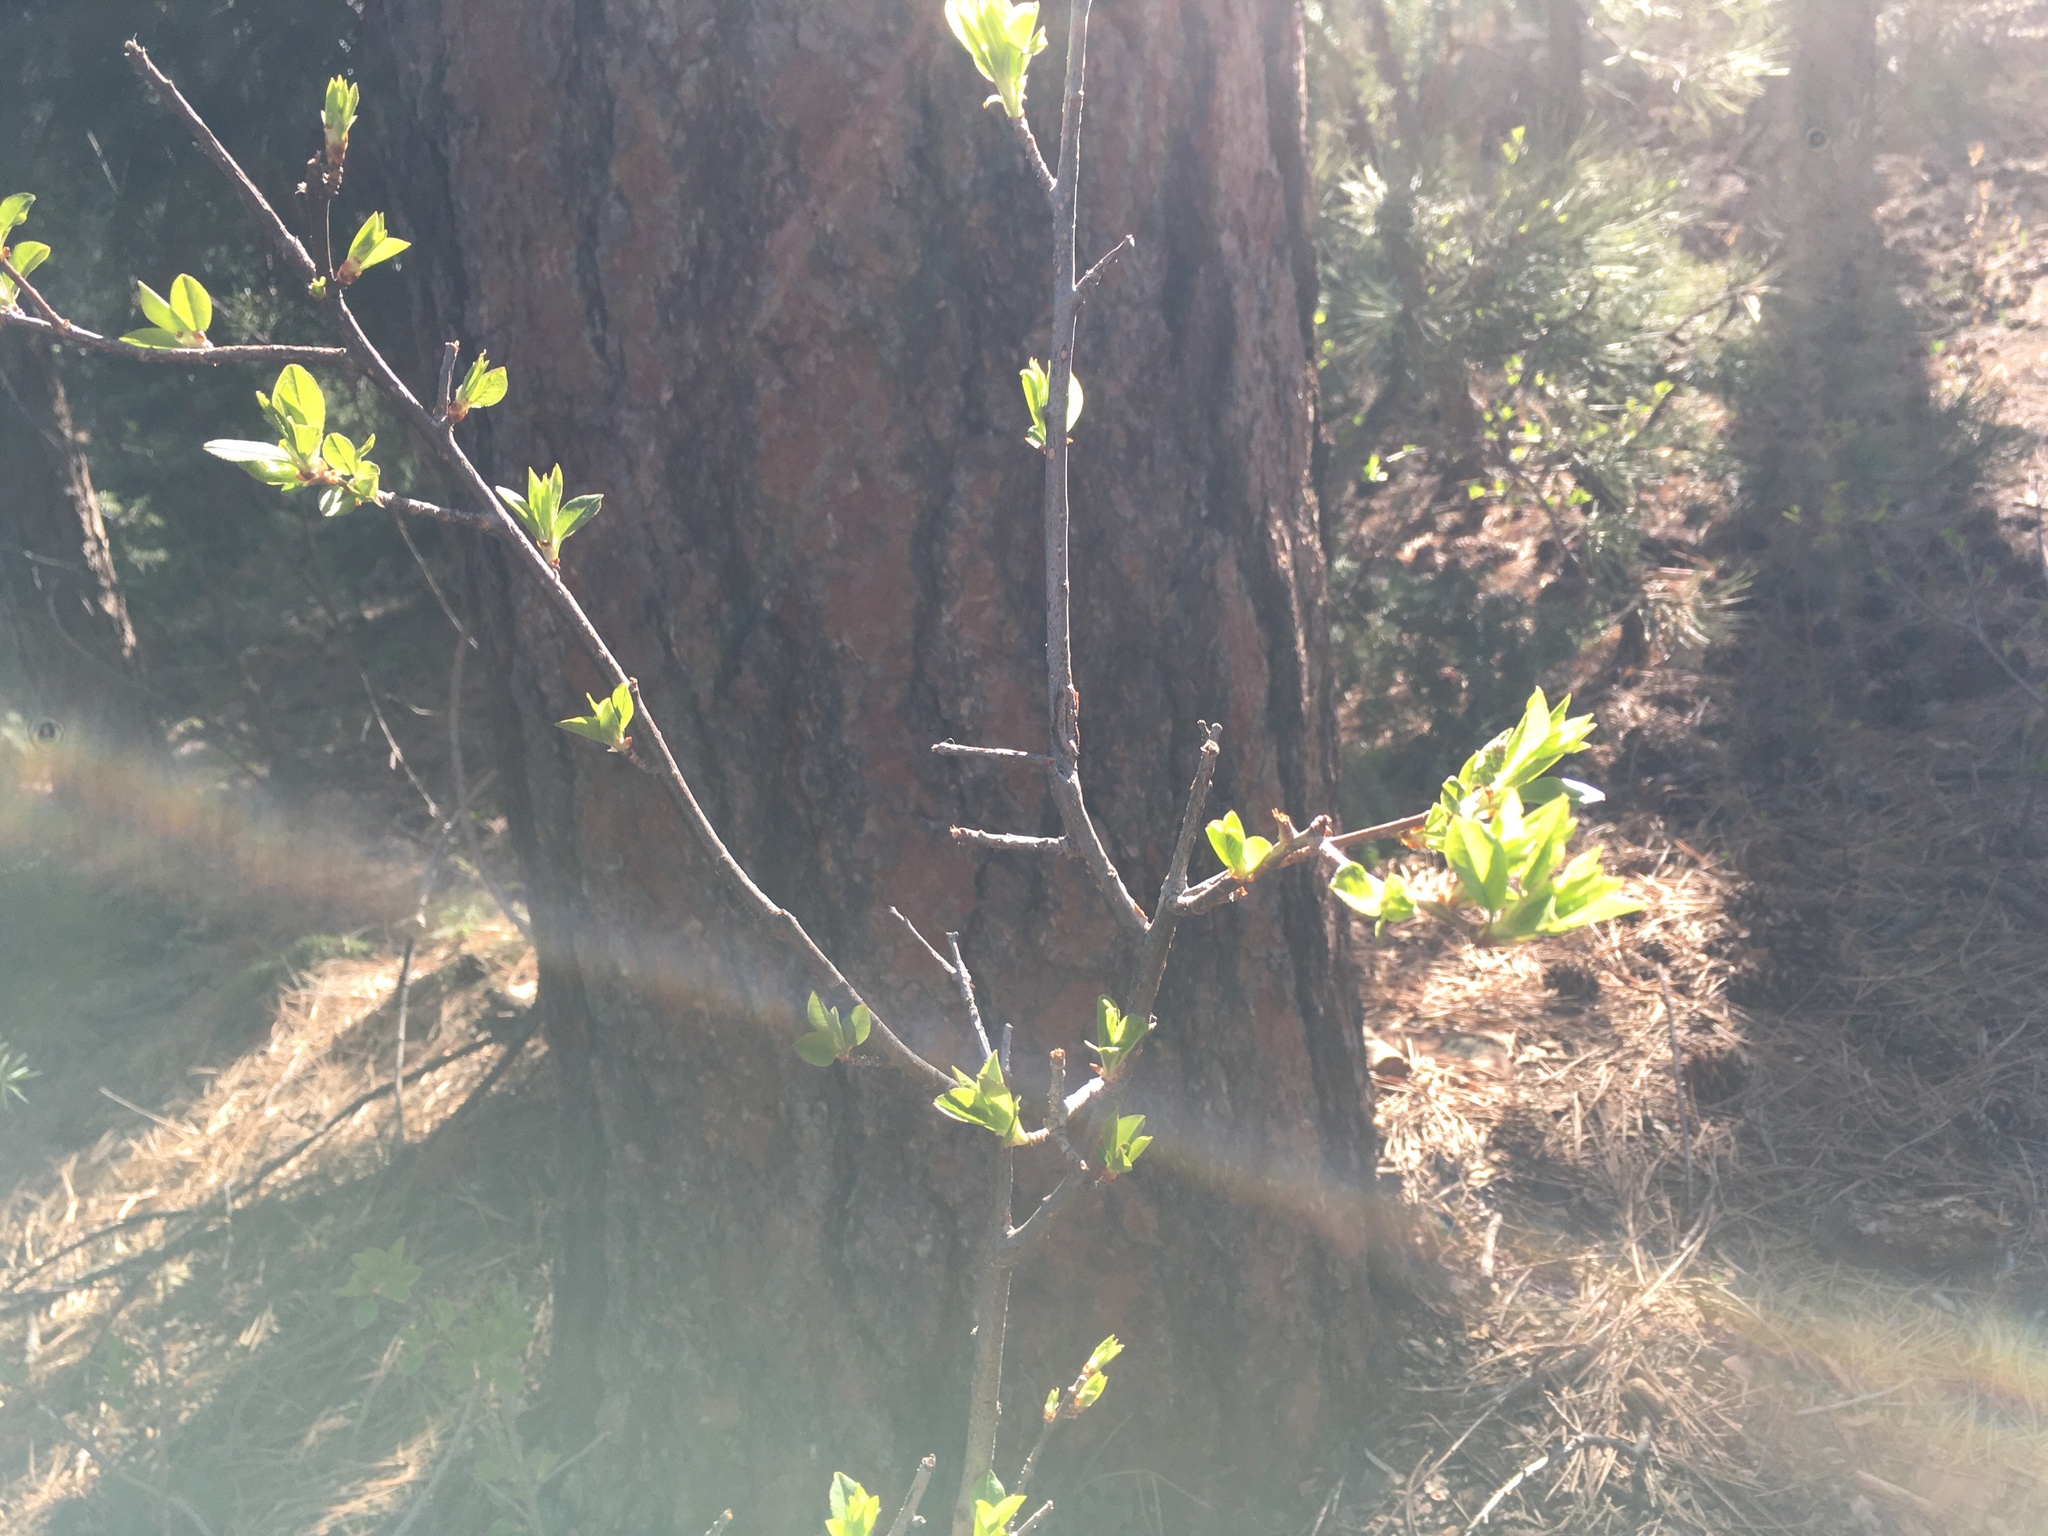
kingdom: Plantae
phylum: Tracheophyta
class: Magnoliopsida
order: Rosales
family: Rosaceae
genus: Prunus
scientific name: Prunus virginiana
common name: Chokecherry
